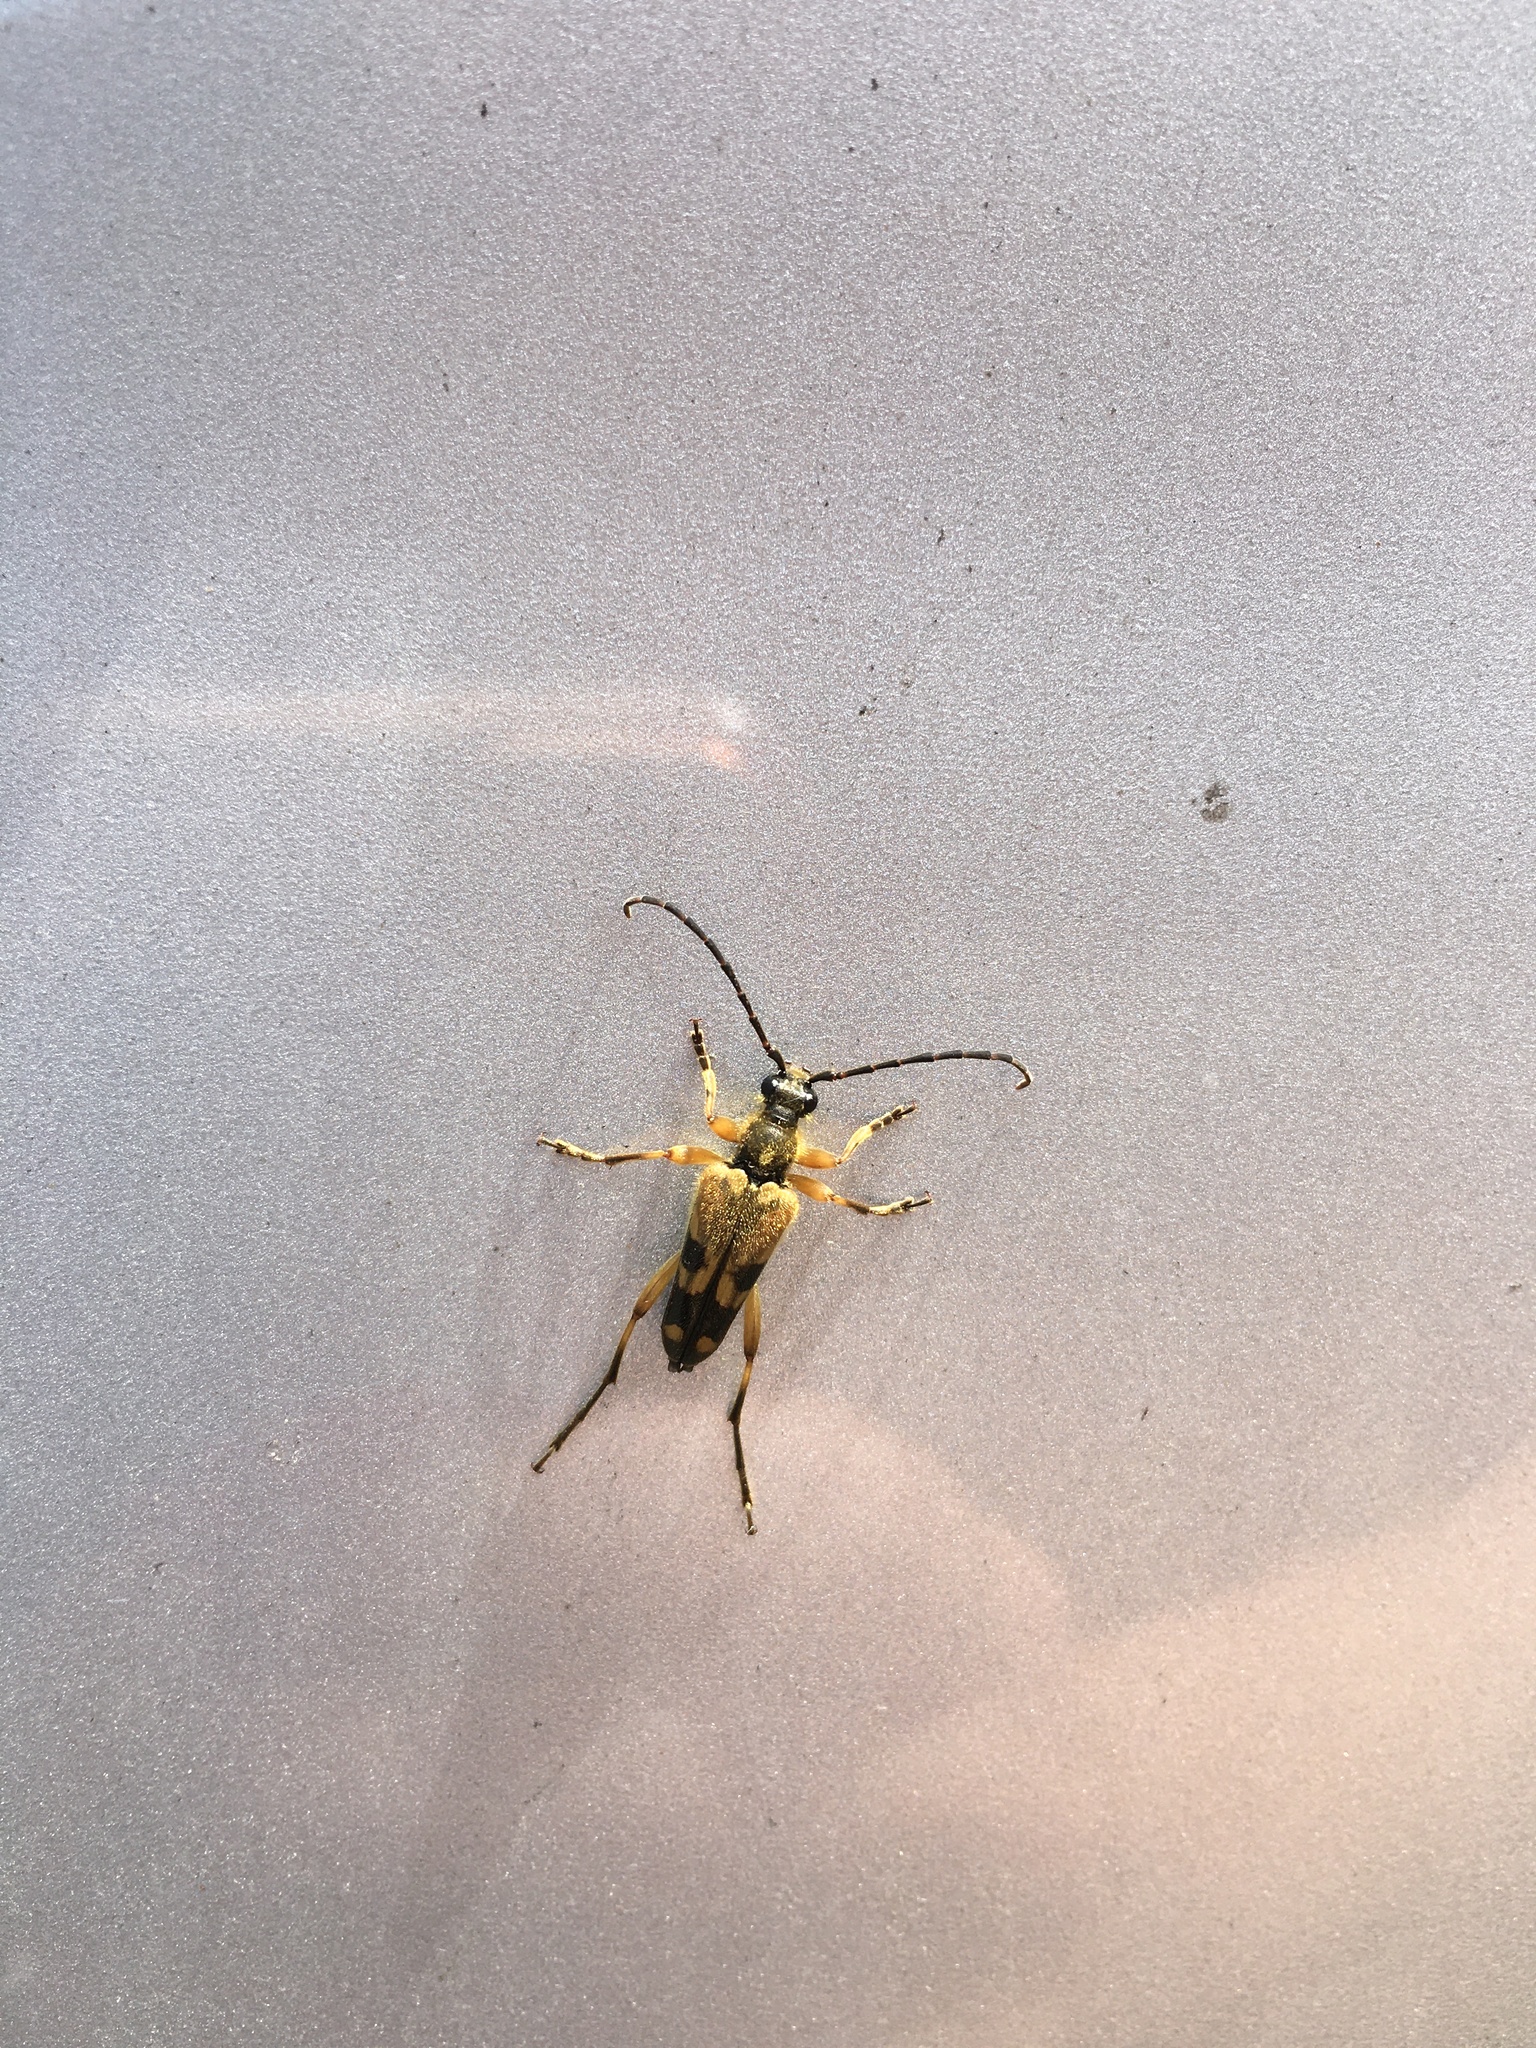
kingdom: Animalia
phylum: Arthropoda
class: Insecta
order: Coleoptera
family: Cerambycidae
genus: Xestoleptura
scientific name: Xestoleptura crassipes
